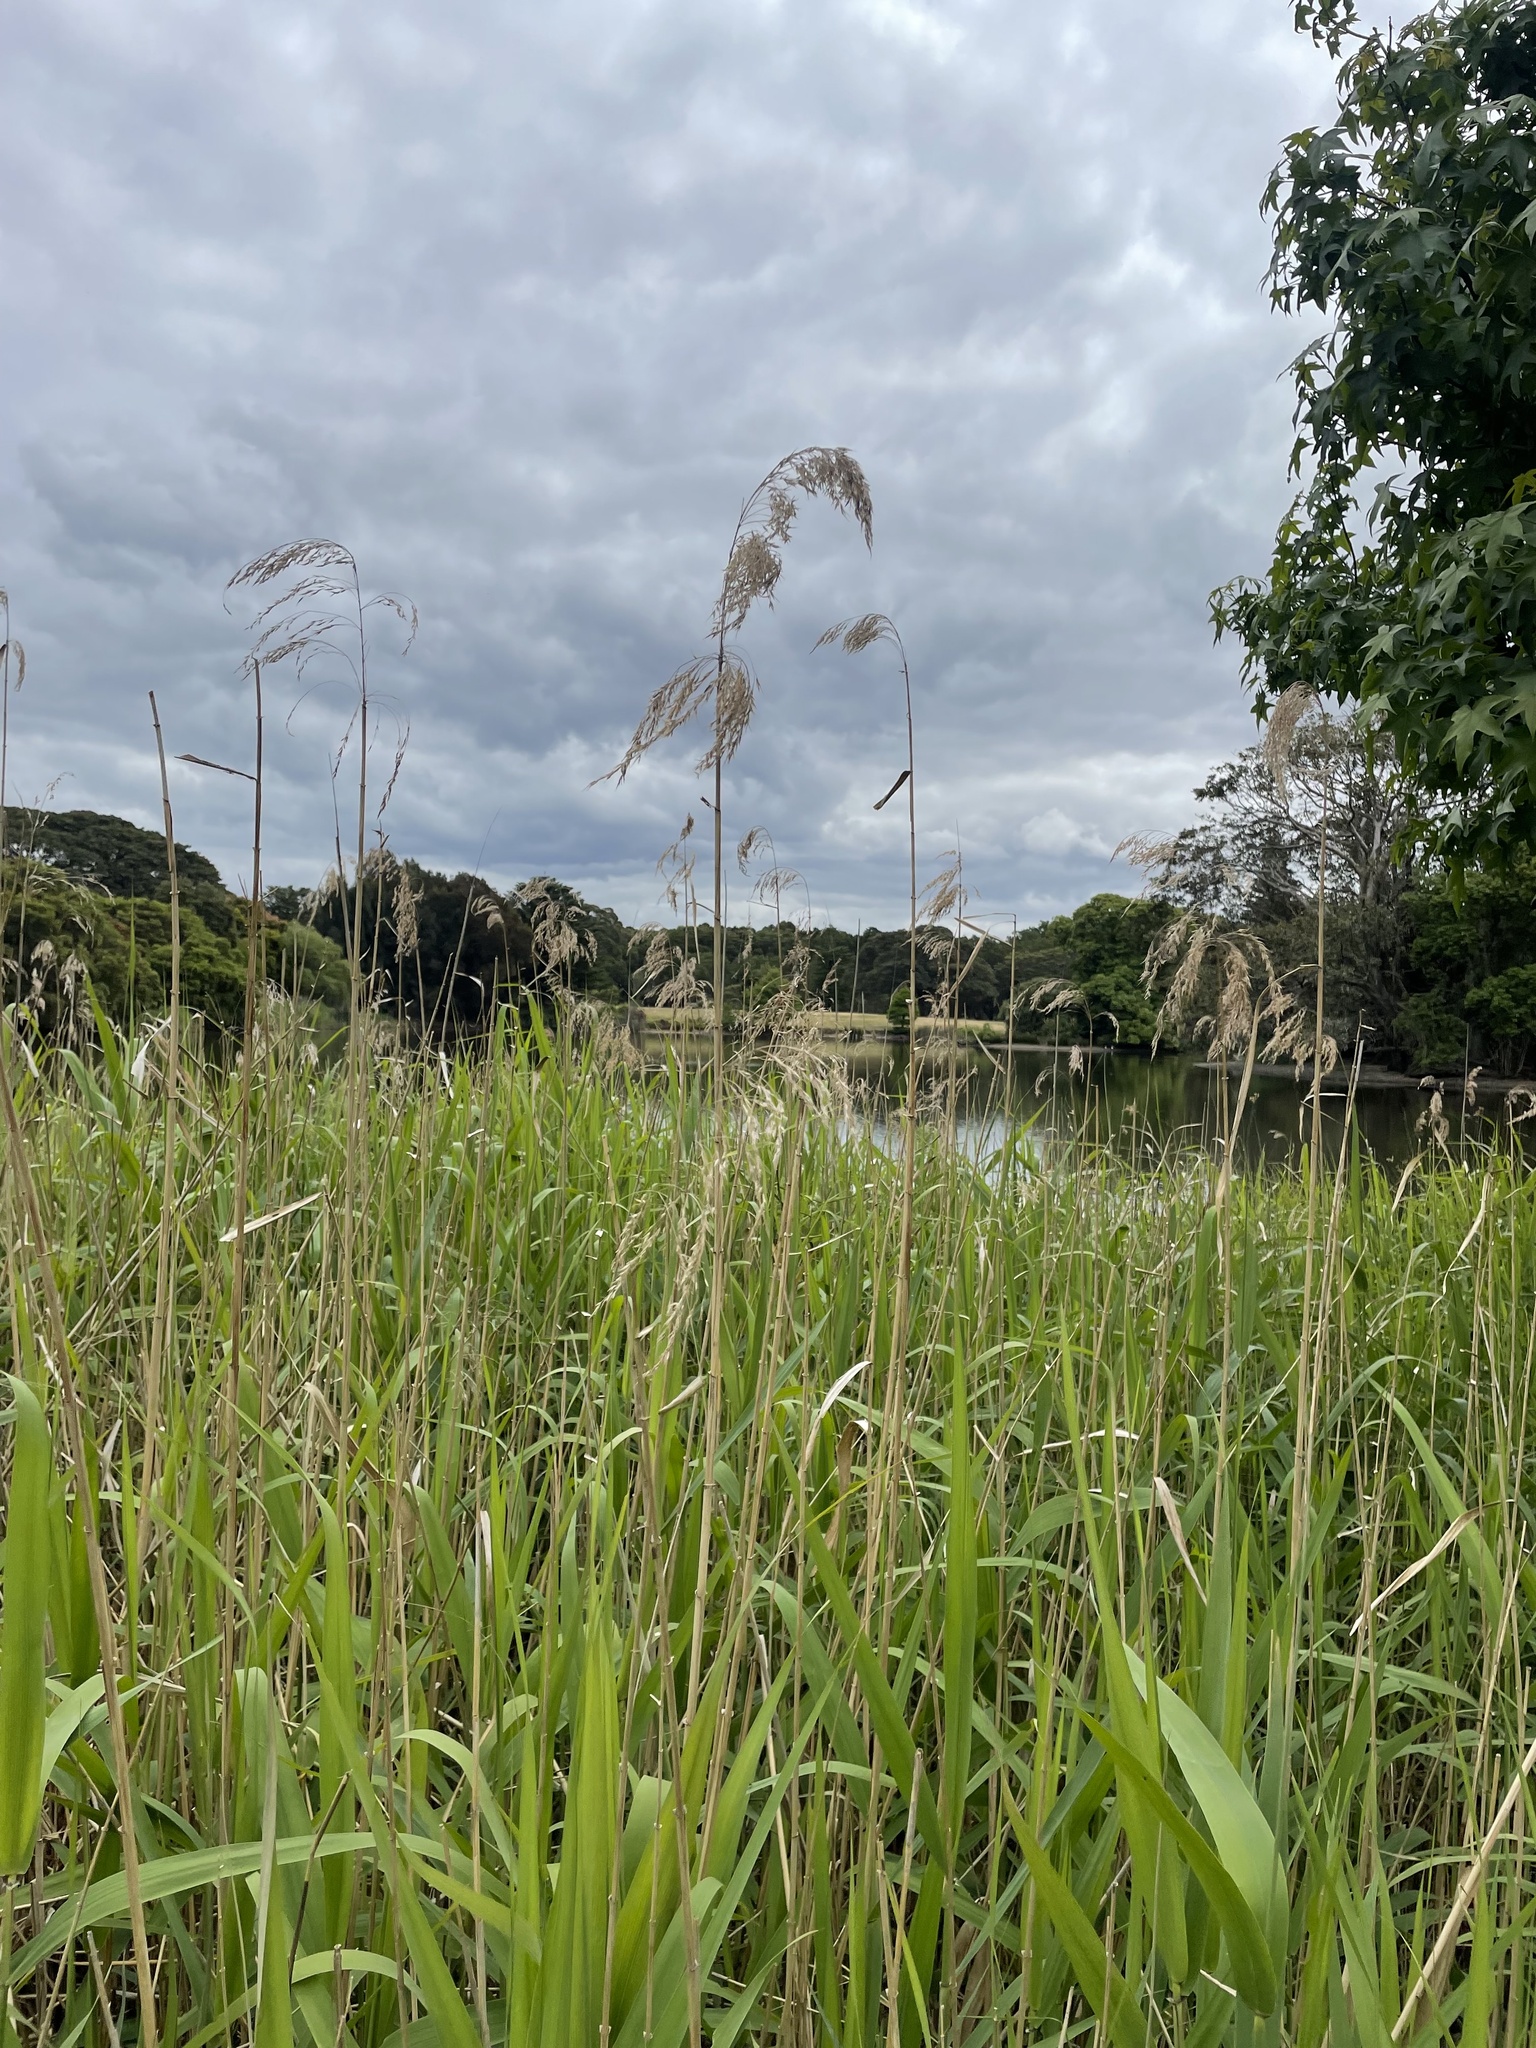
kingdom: Plantae
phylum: Tracheophyta
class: Liliopsida
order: Poales
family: Poaceae
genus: Phragmites
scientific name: Phragmites australis
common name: Common reed
